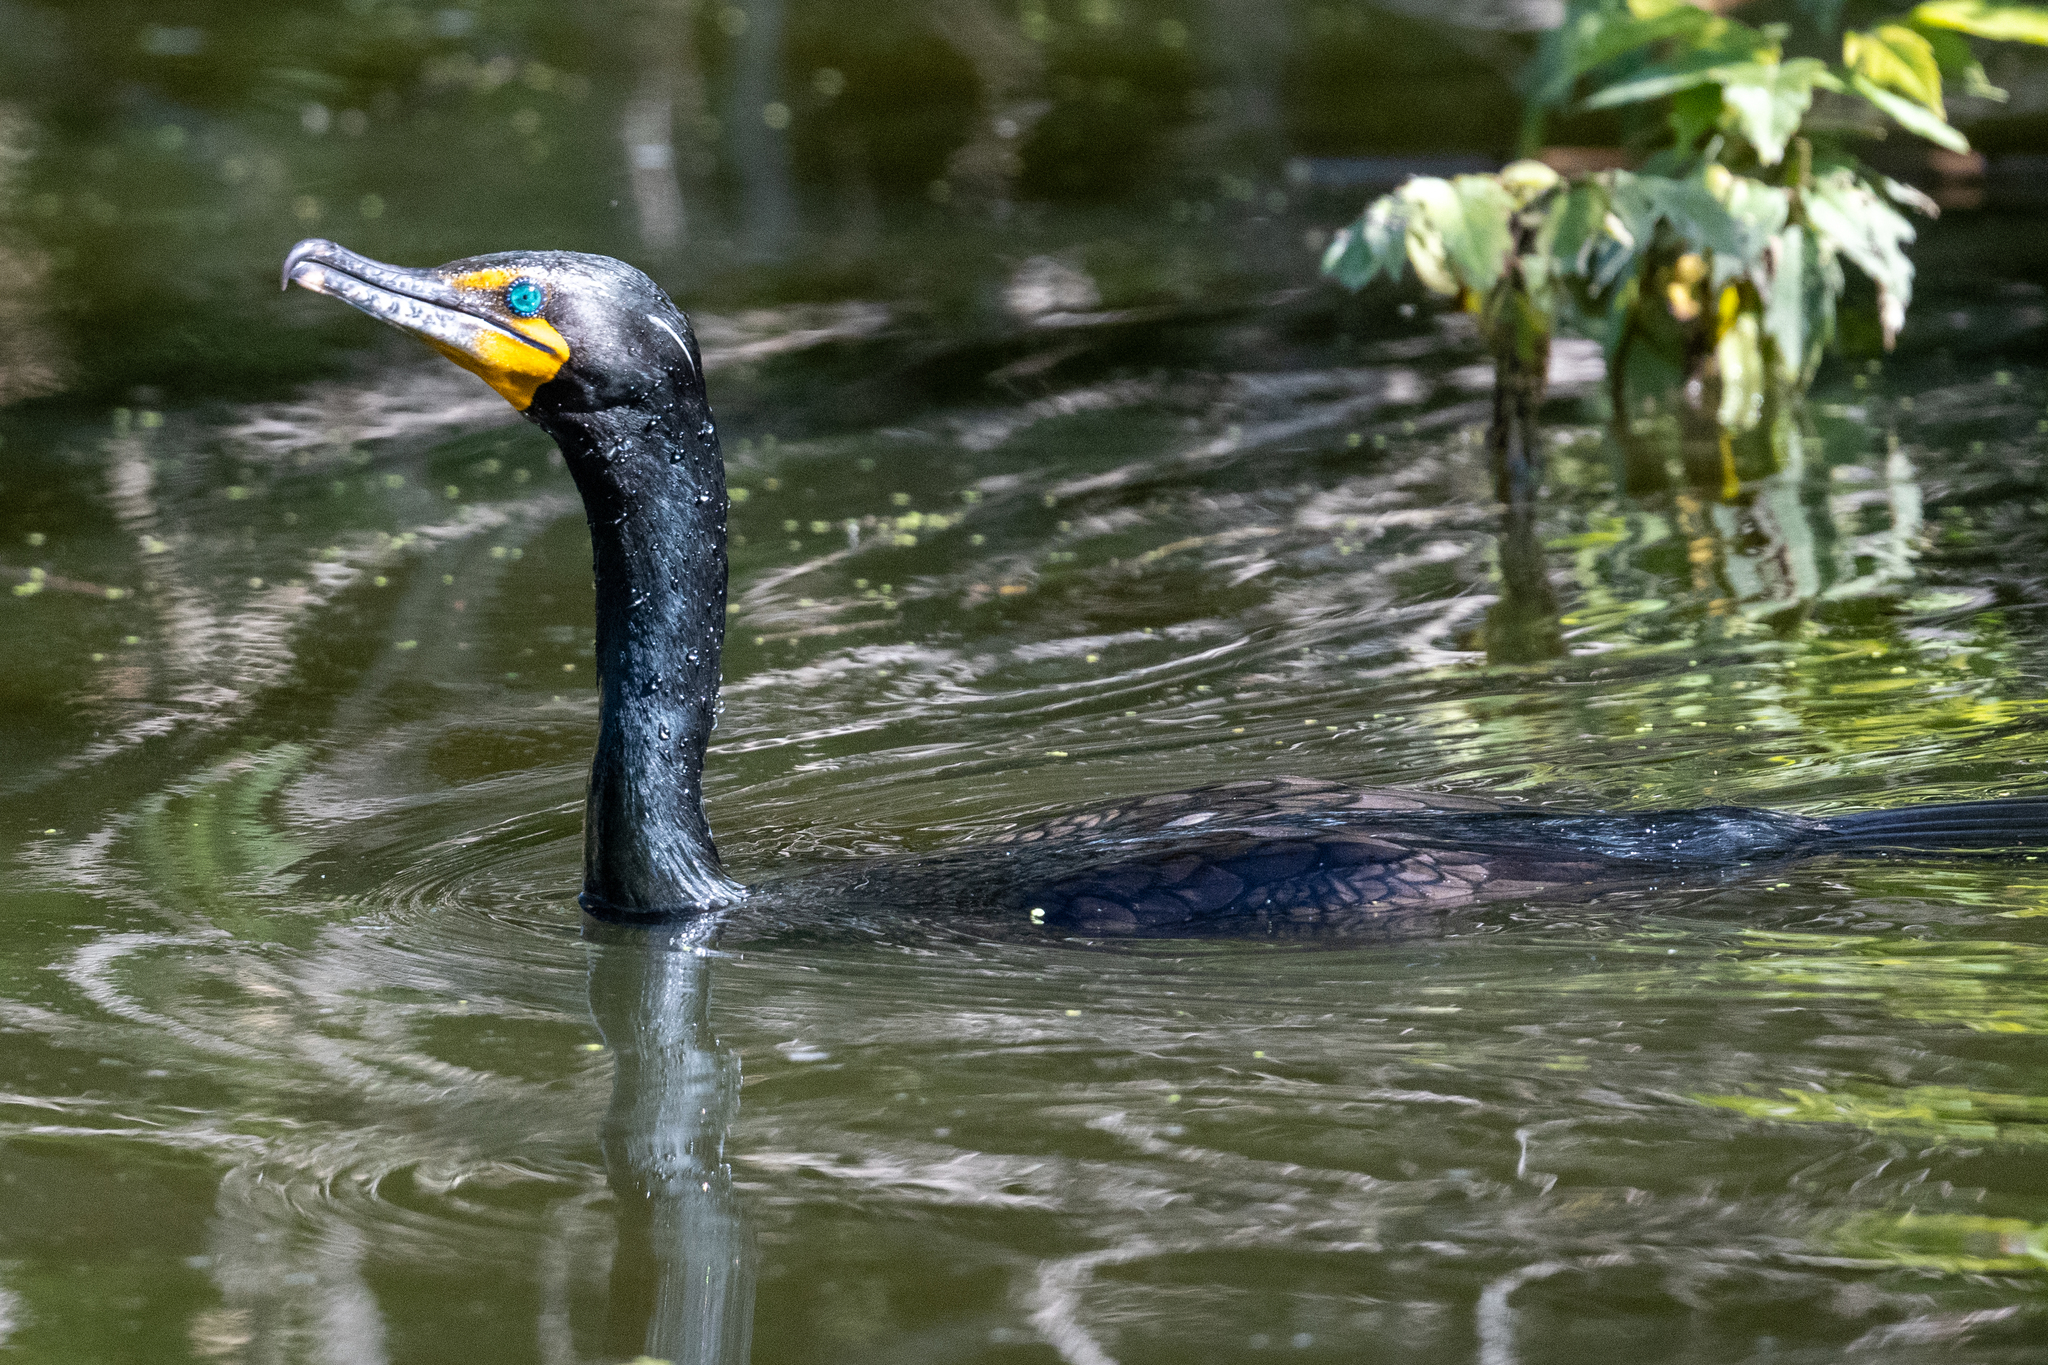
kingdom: Animalia
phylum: Chordata
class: Aves
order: Suliformes
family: Phalacrocoracidae
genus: Phalacrocorax
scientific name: Phalacrocorax auritus
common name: Double-crested cormorant
